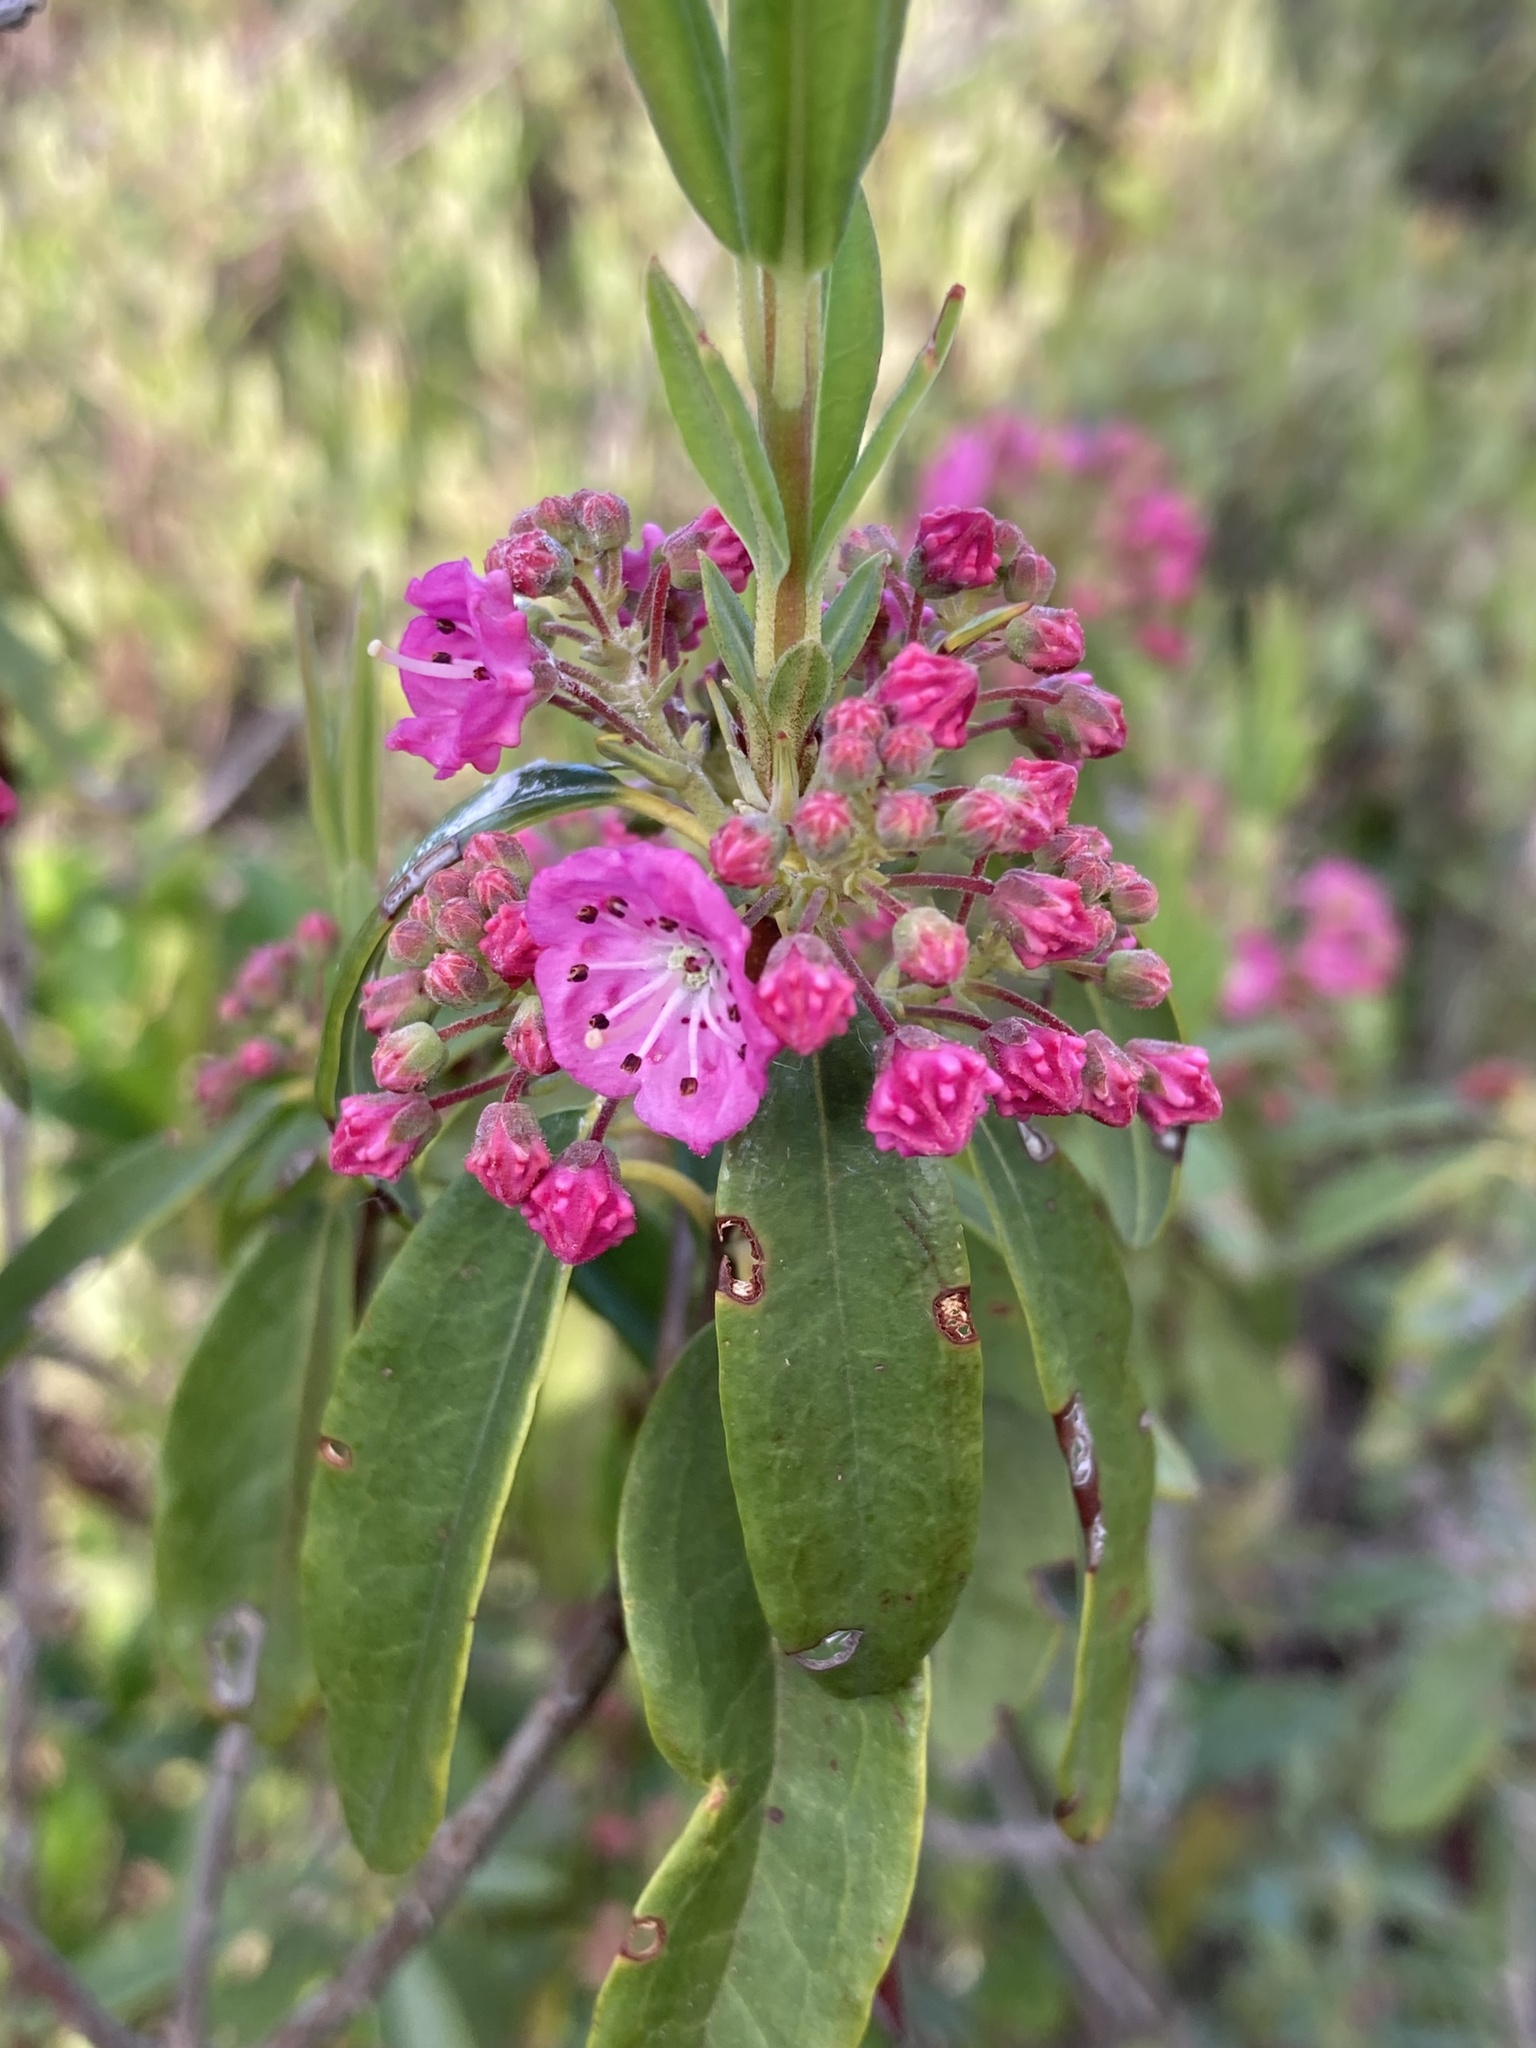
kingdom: Plantae
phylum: Tracheophyta
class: Magnoliopsida
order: Ericales
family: Ericaceae
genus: Kalmia
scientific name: Kalmia angustifolia
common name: Sheep-laurel
